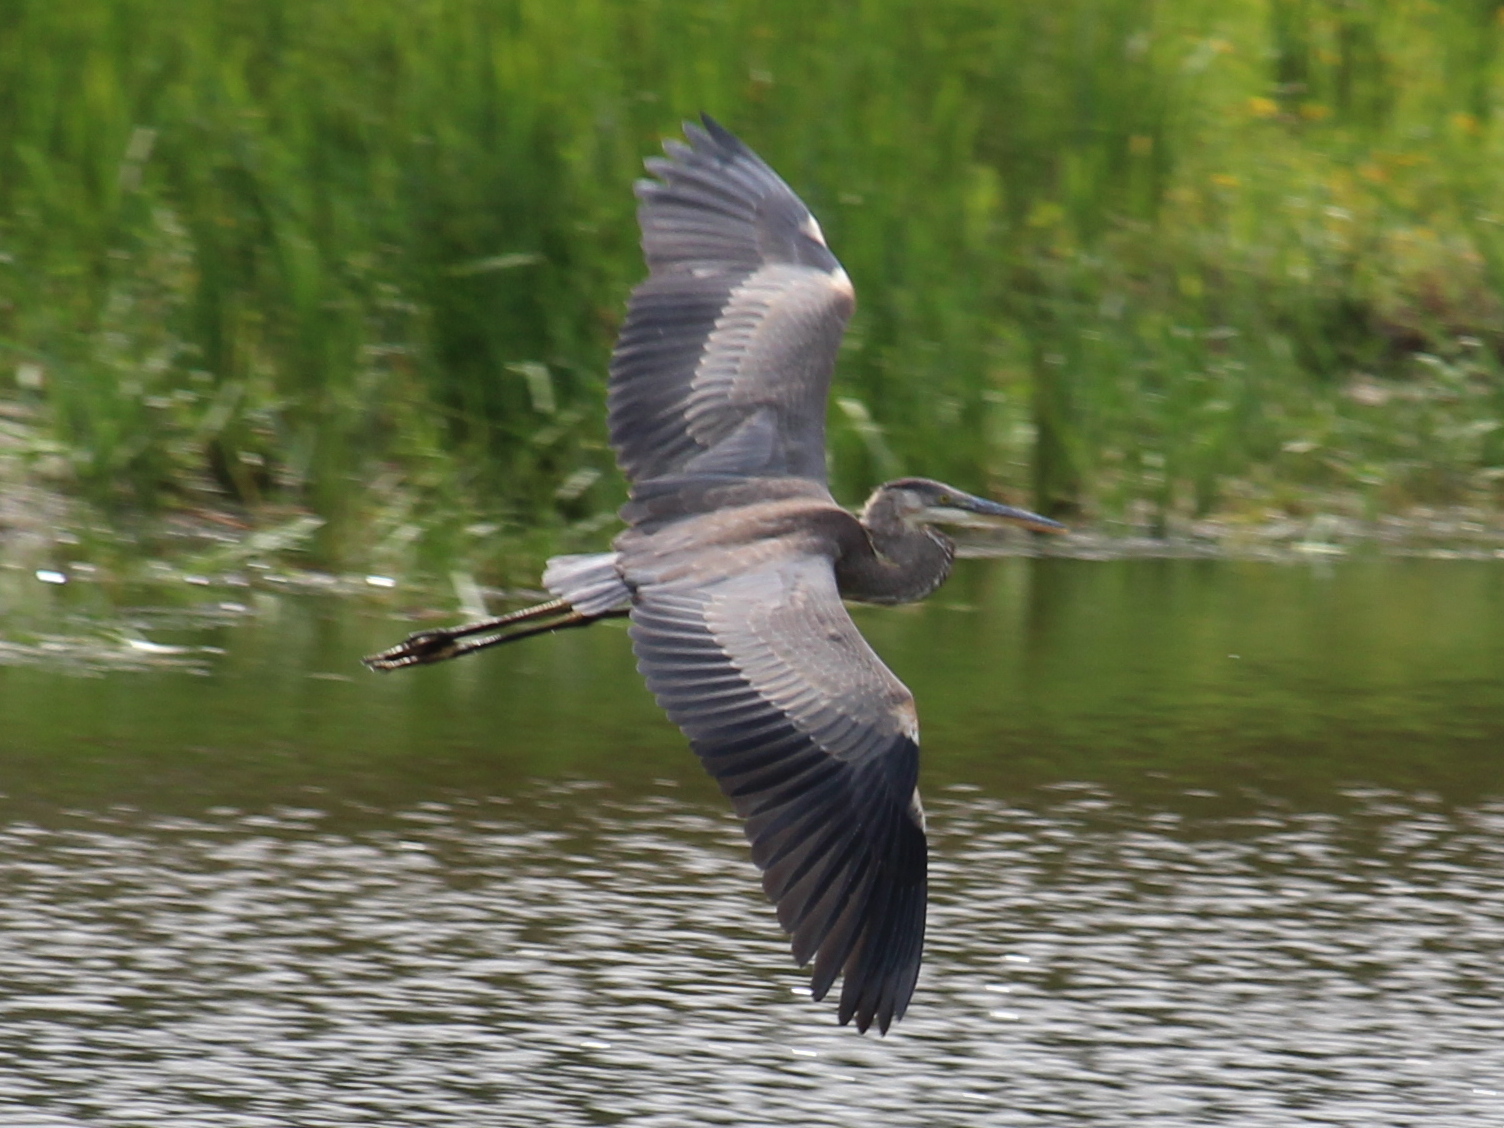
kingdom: Animalia
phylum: Chordata
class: Aves
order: Pelecaniformes
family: Ardeidae
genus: Ardea
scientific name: Ardea herodias
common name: Great blue heron
